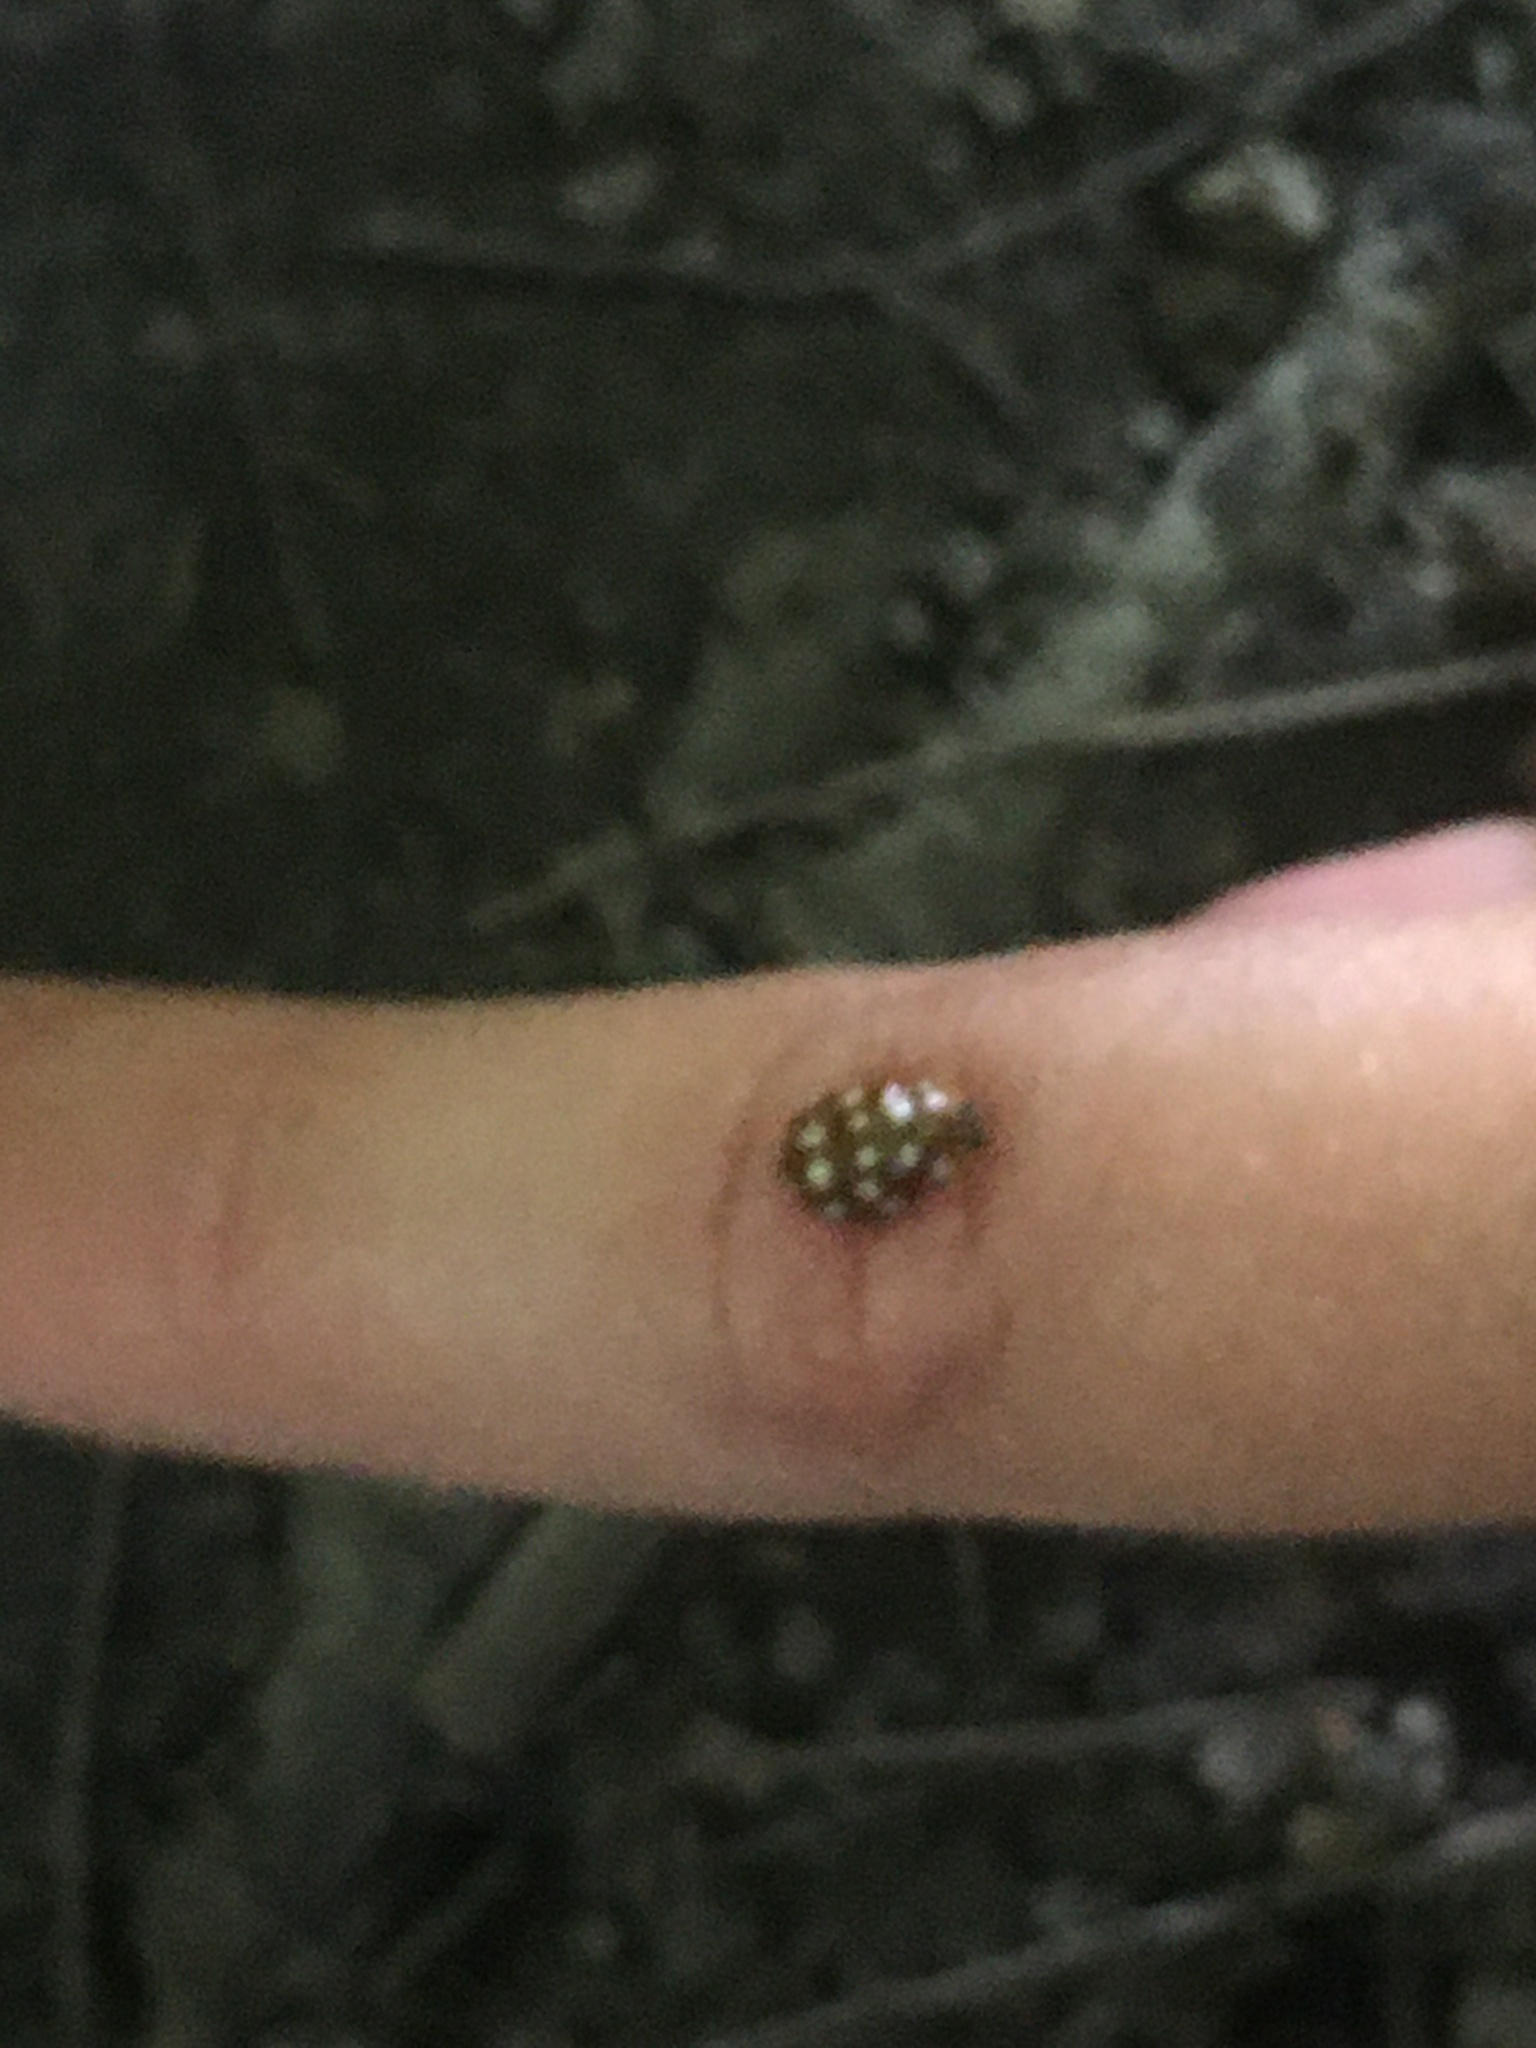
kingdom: Animalia
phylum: Arthropoda
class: Insecta
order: Coleoptera
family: Coccinellidae
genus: Calvia
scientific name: Calvia quatuordecimguttata
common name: Cream-spot ladybird
